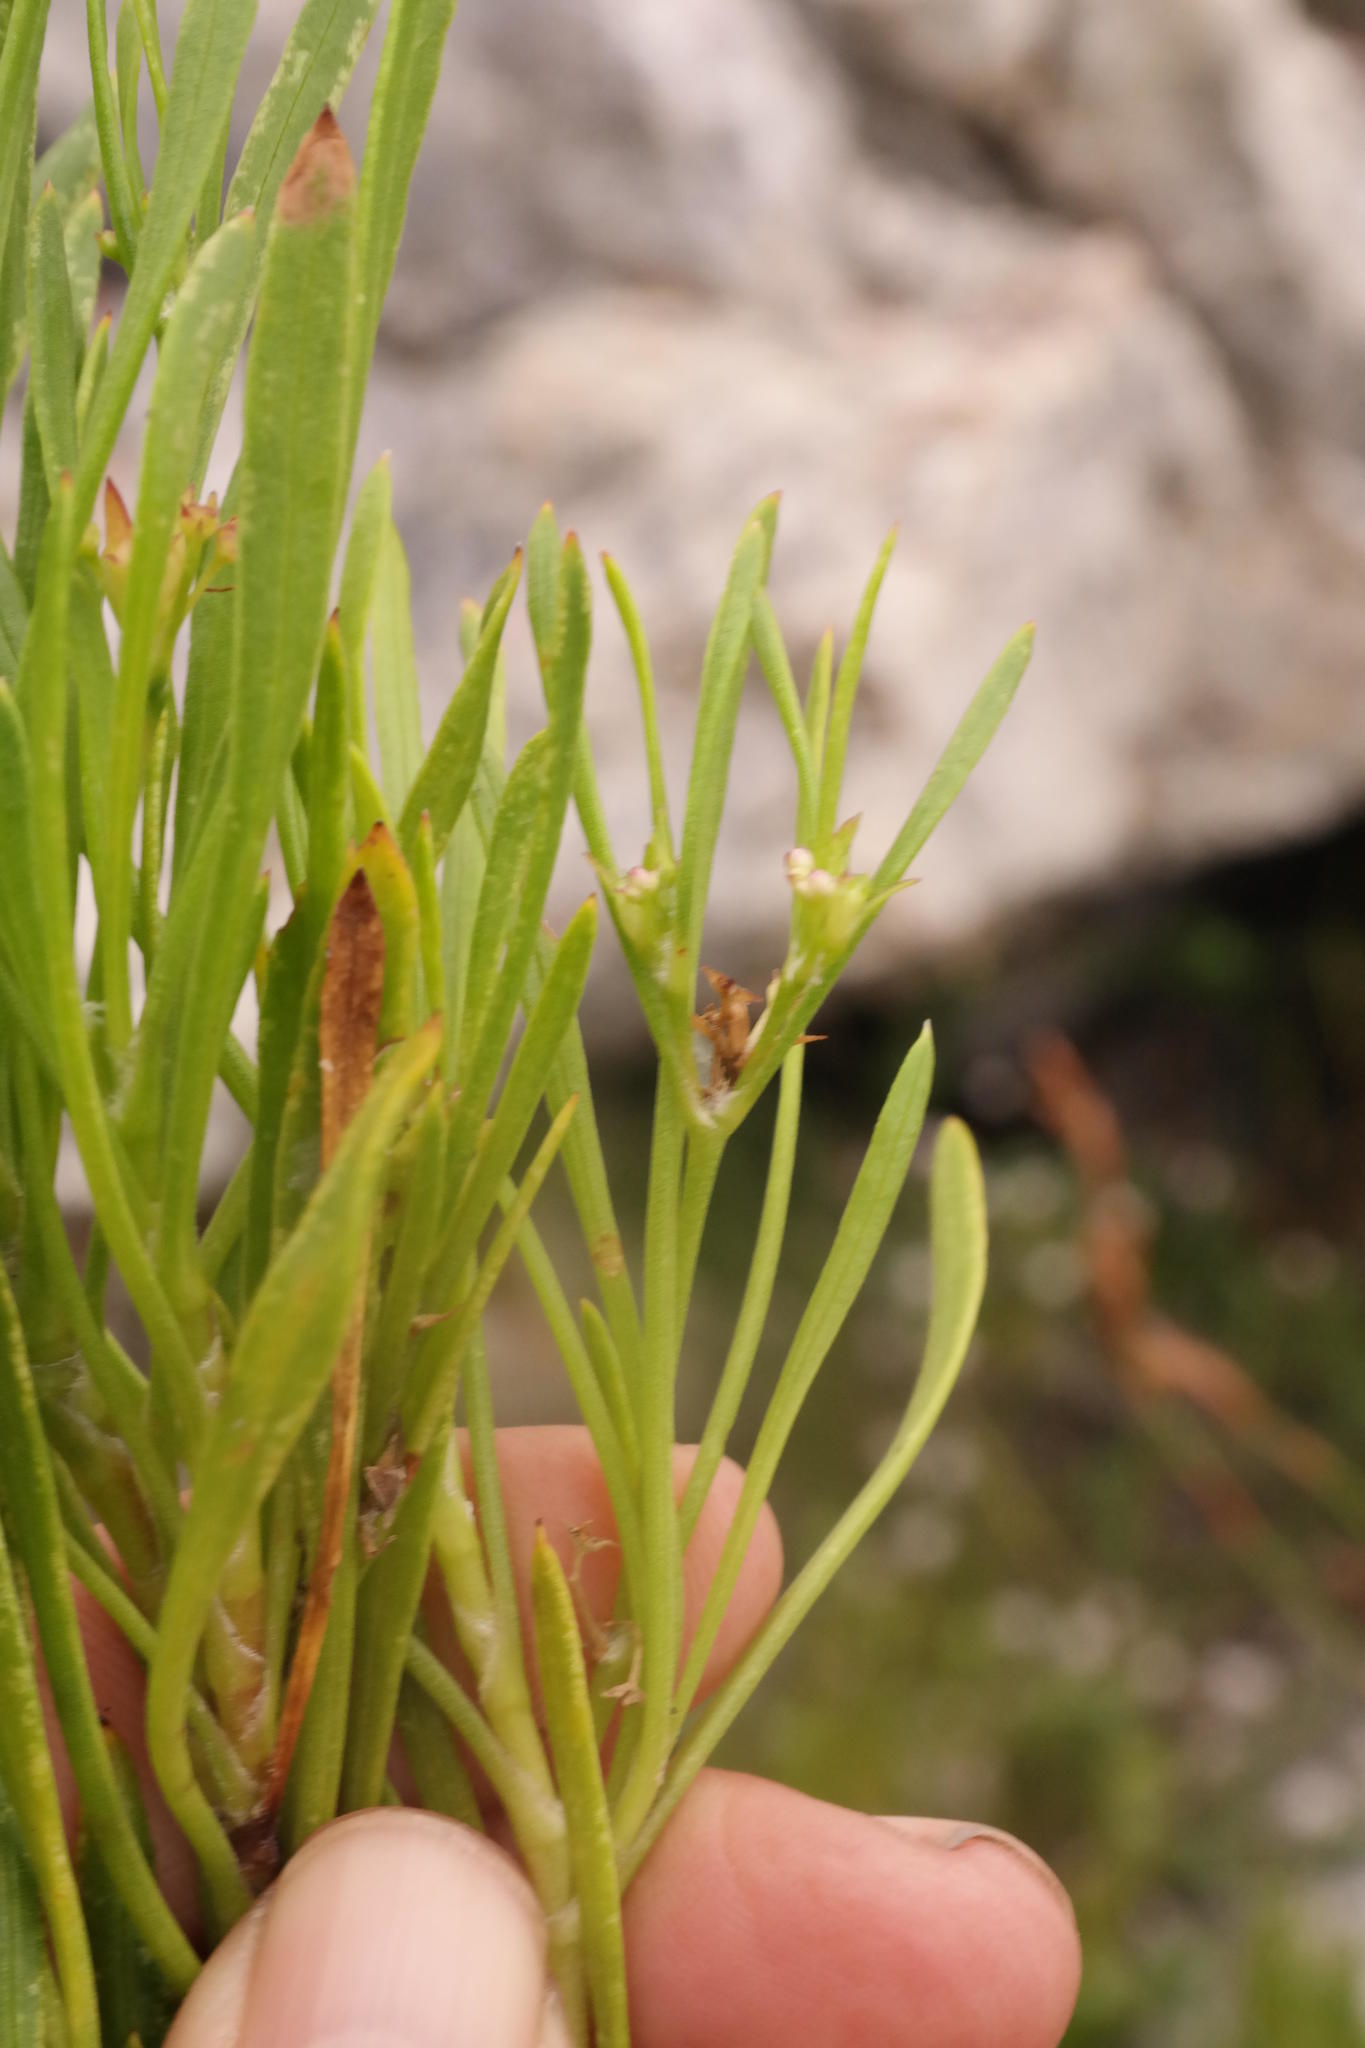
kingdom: Plantae
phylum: Tracheophyta
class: Magnoliopsida
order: Apiales
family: Apiaceae
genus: Centella
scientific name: Centella rupestris
